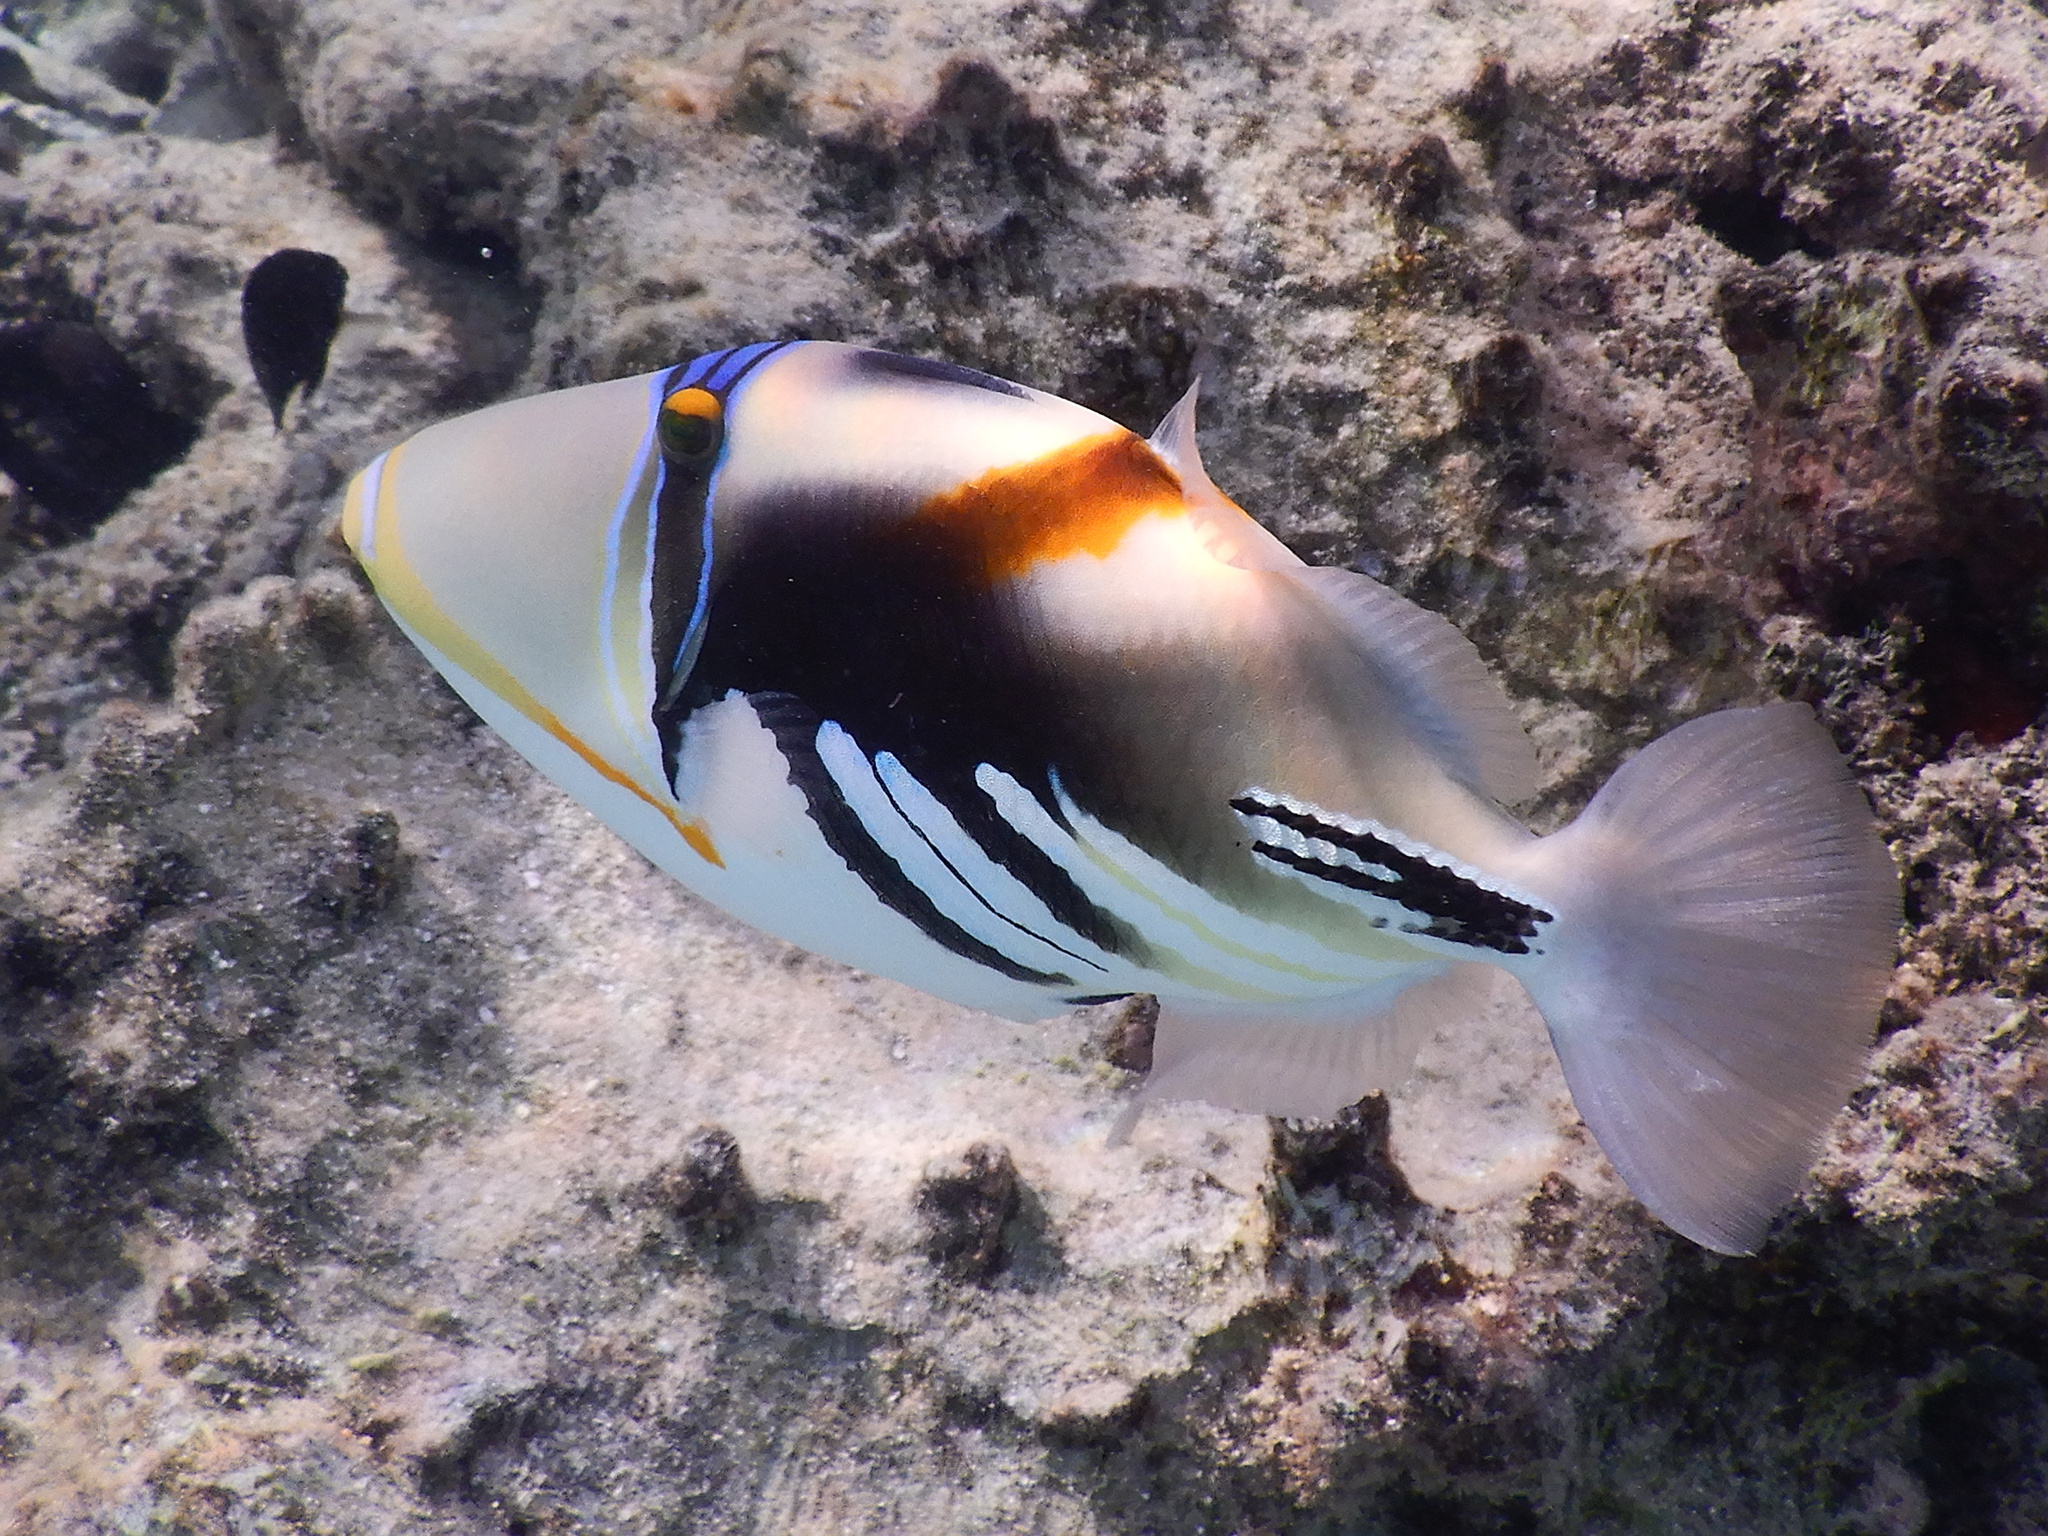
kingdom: Animalia
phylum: Chordata
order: Tetraodontiformes
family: Balistidae
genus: Rhinecanthus
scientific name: Rhinecanthus aculeatus
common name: White-banded triggerfish
